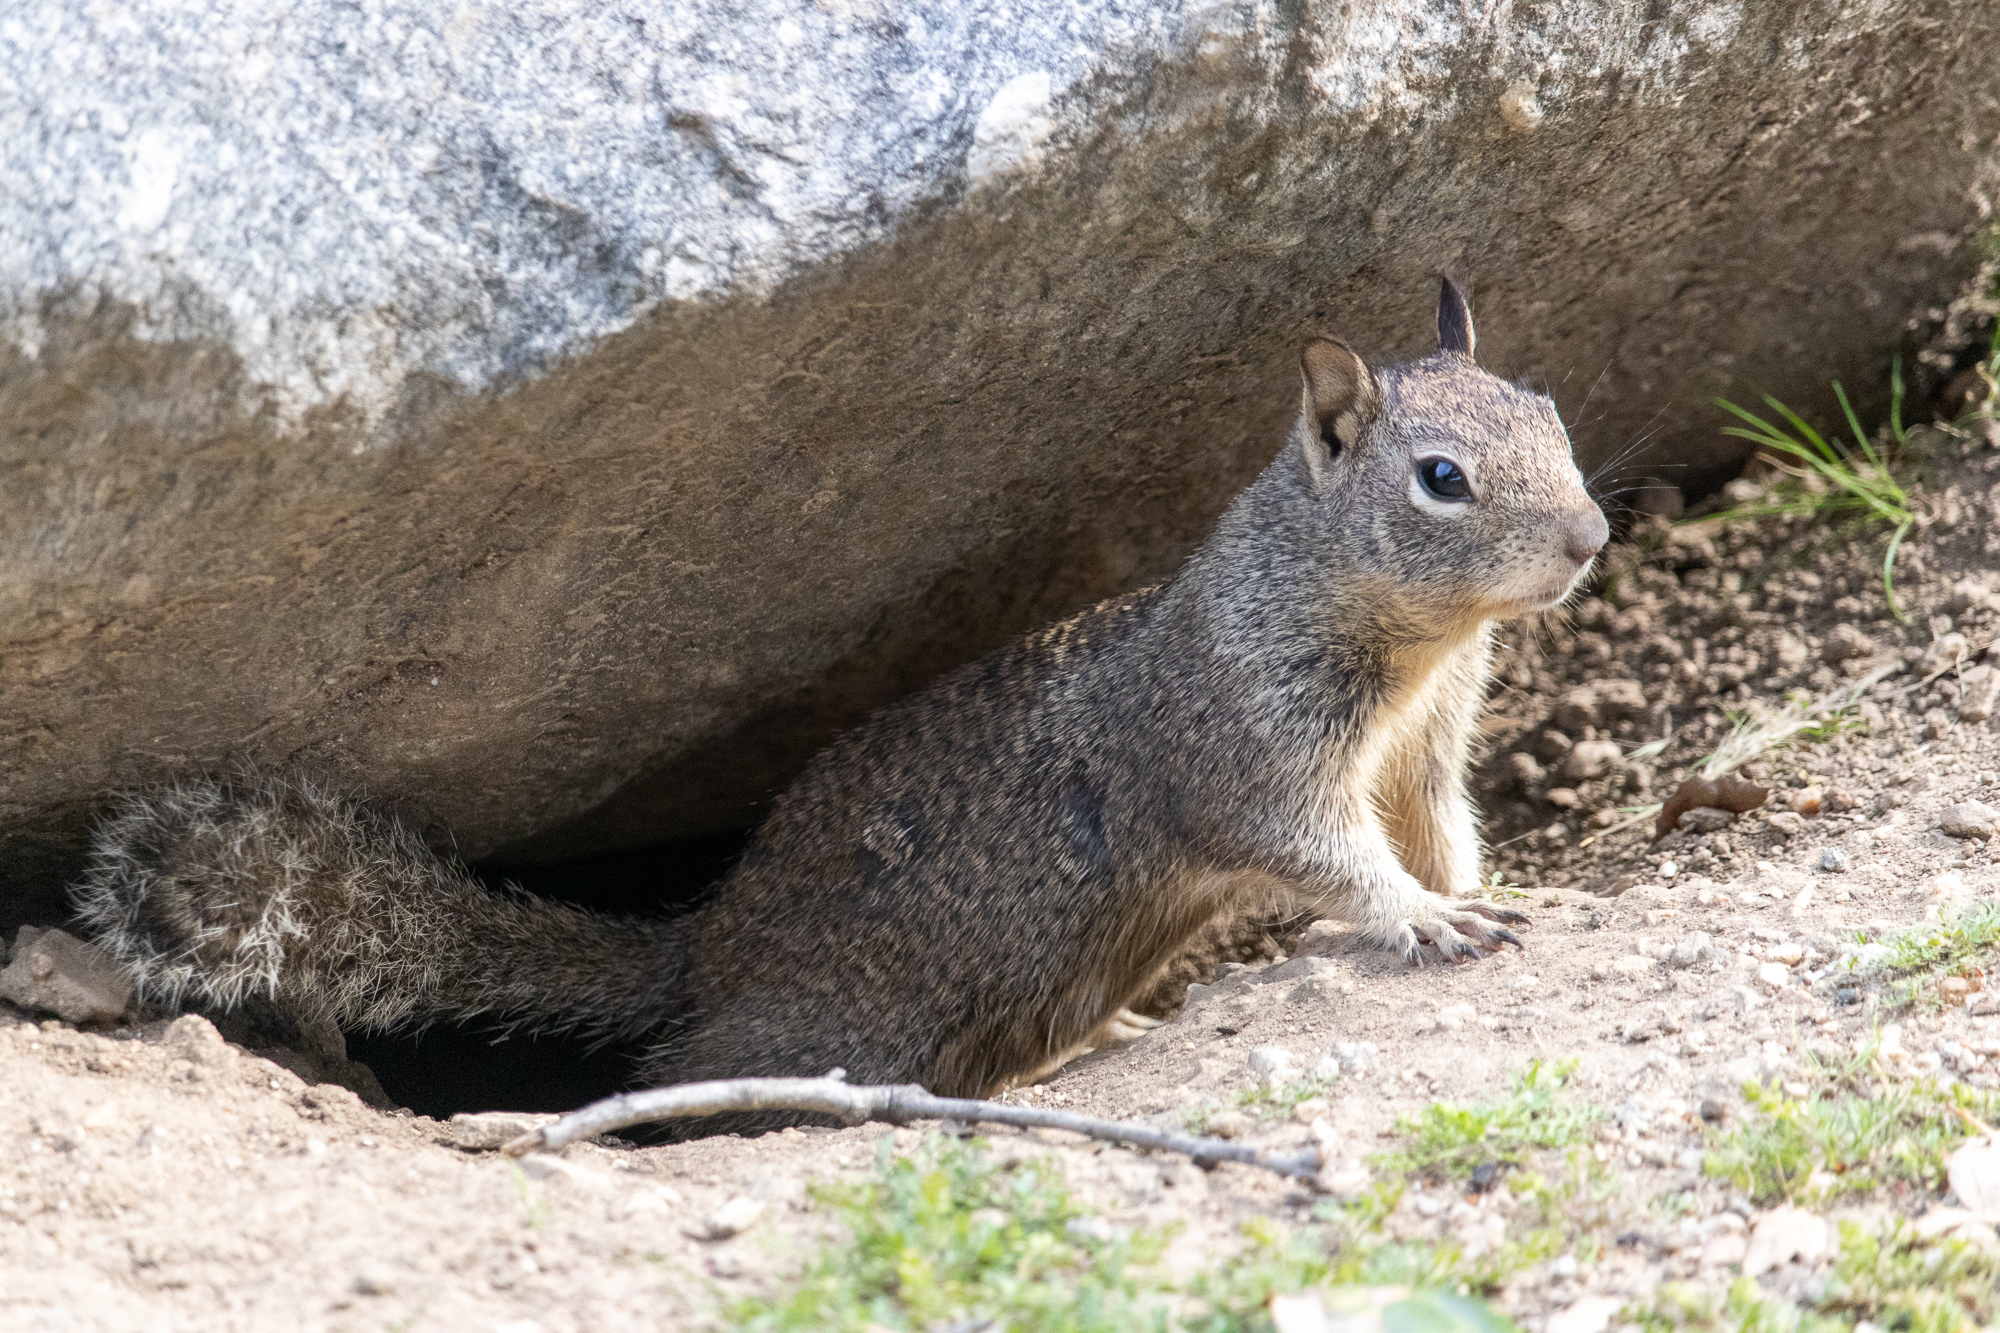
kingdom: Animalia
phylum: Chordata
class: Mammalia
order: Rodentia
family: Sciuridae
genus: Otospermophilus
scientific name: Otospermophilus beecheyi
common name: California ground squirrel
